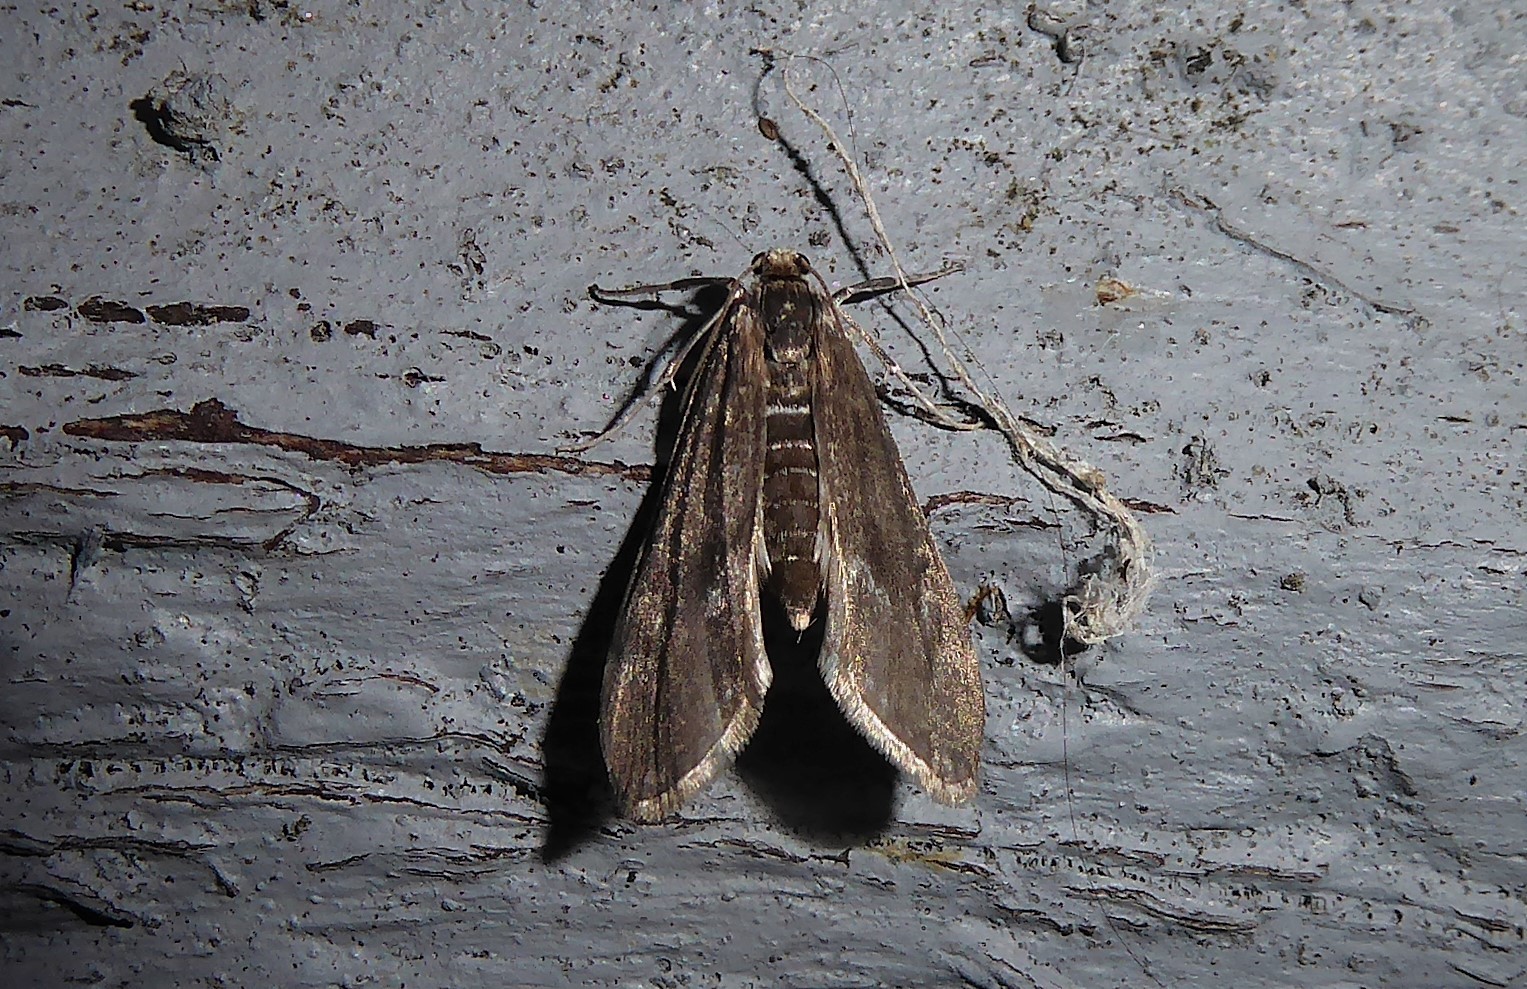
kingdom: Animalia
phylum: Arthropoda
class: Insecta
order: Lepidoptera
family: Crambidae
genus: Hygraula
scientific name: Hygraula nitens
